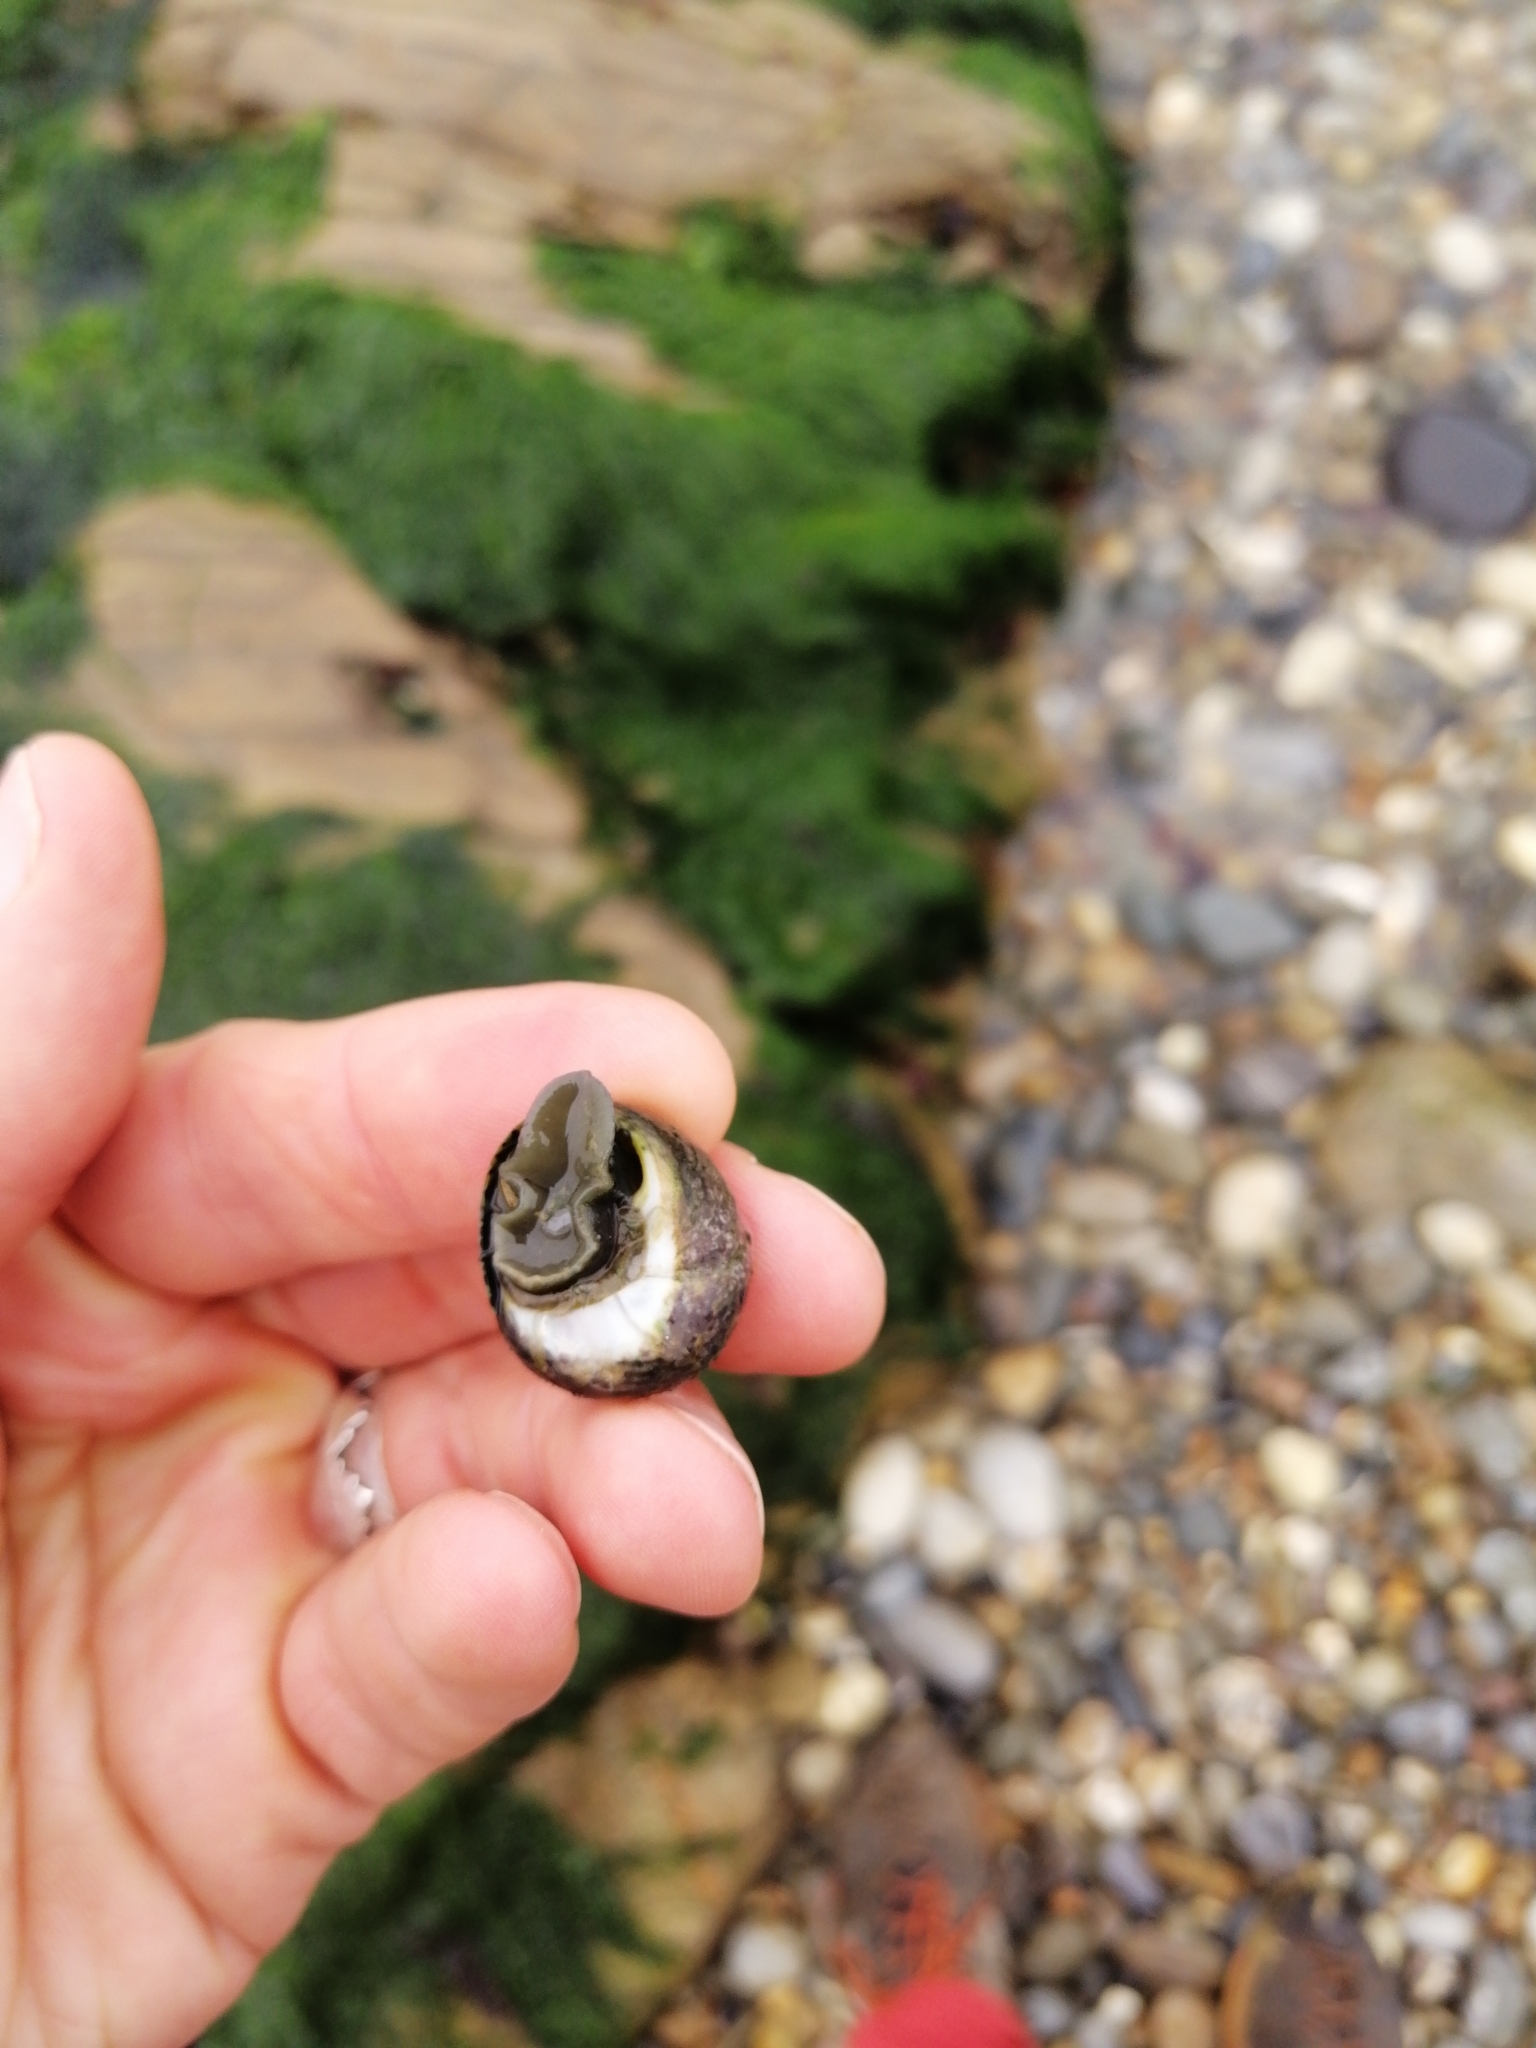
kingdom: Animalia
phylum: Mollusca
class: Gastropoda
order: Trochida
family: Trochidae
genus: Phorcus
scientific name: Phorcus lineatus
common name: Toothed top shell
